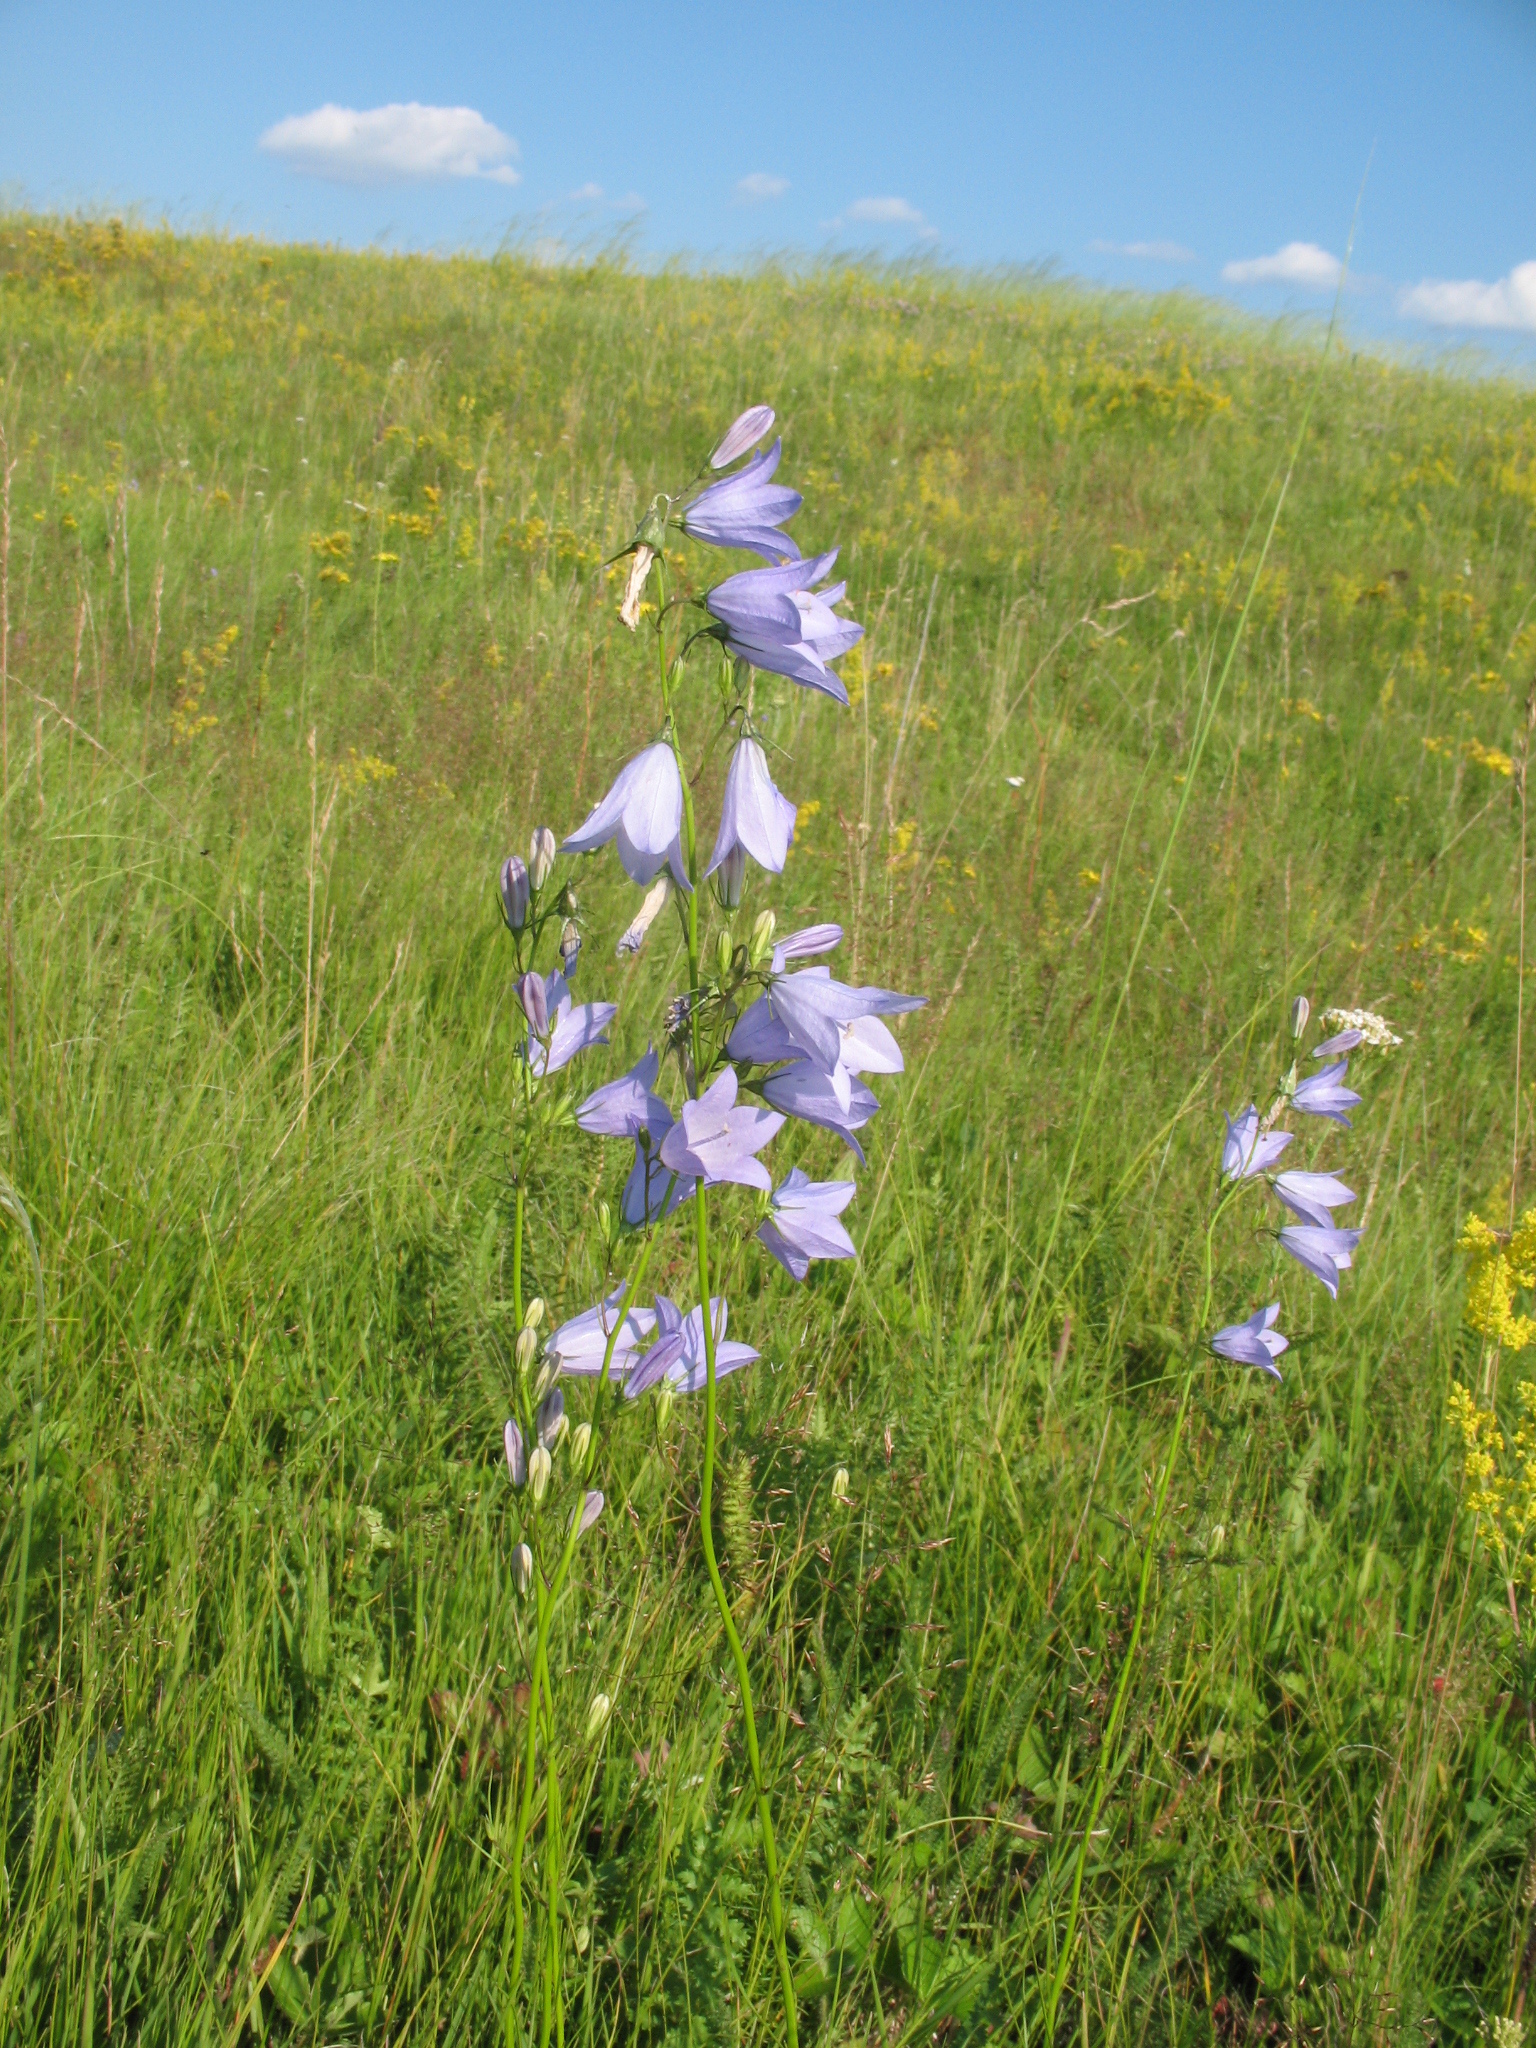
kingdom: Plantae
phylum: Tracheophyta
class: Magnoliopsida
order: Asterales
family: Campanulaceae
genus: Campanula
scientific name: Campanula rotundifolia
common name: Harebell
